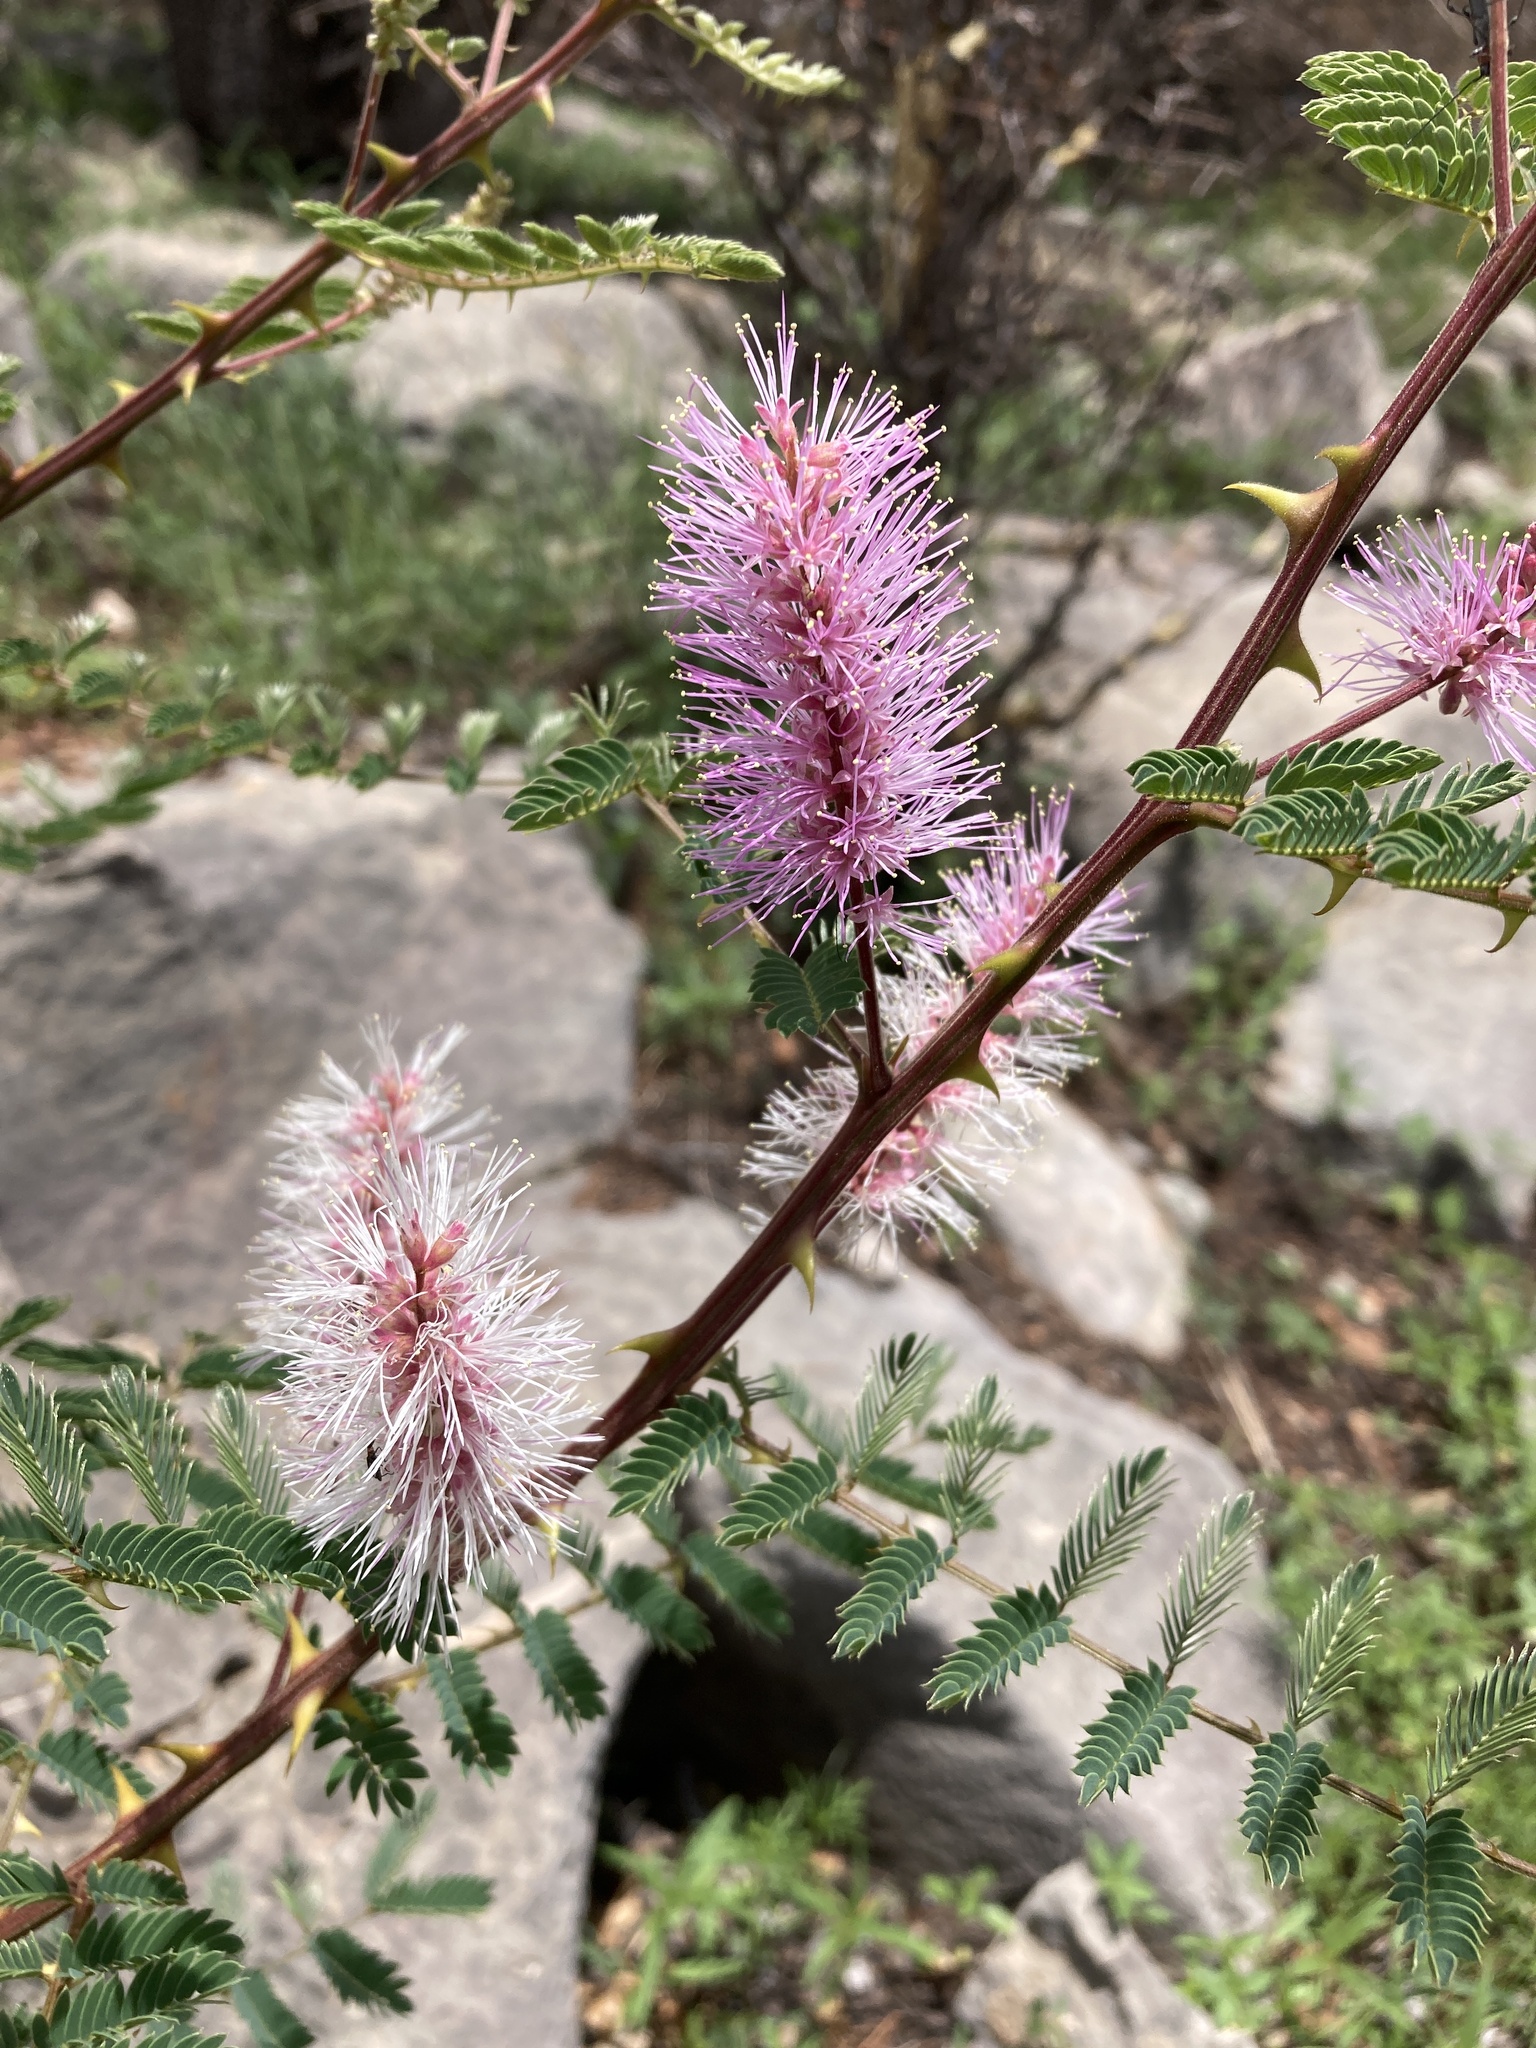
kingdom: Plantae
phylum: Tracheophyta
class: Magnoliopsida
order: Fabales
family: Fabaceae
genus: Mimosa
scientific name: Mimosa dysocarpa
